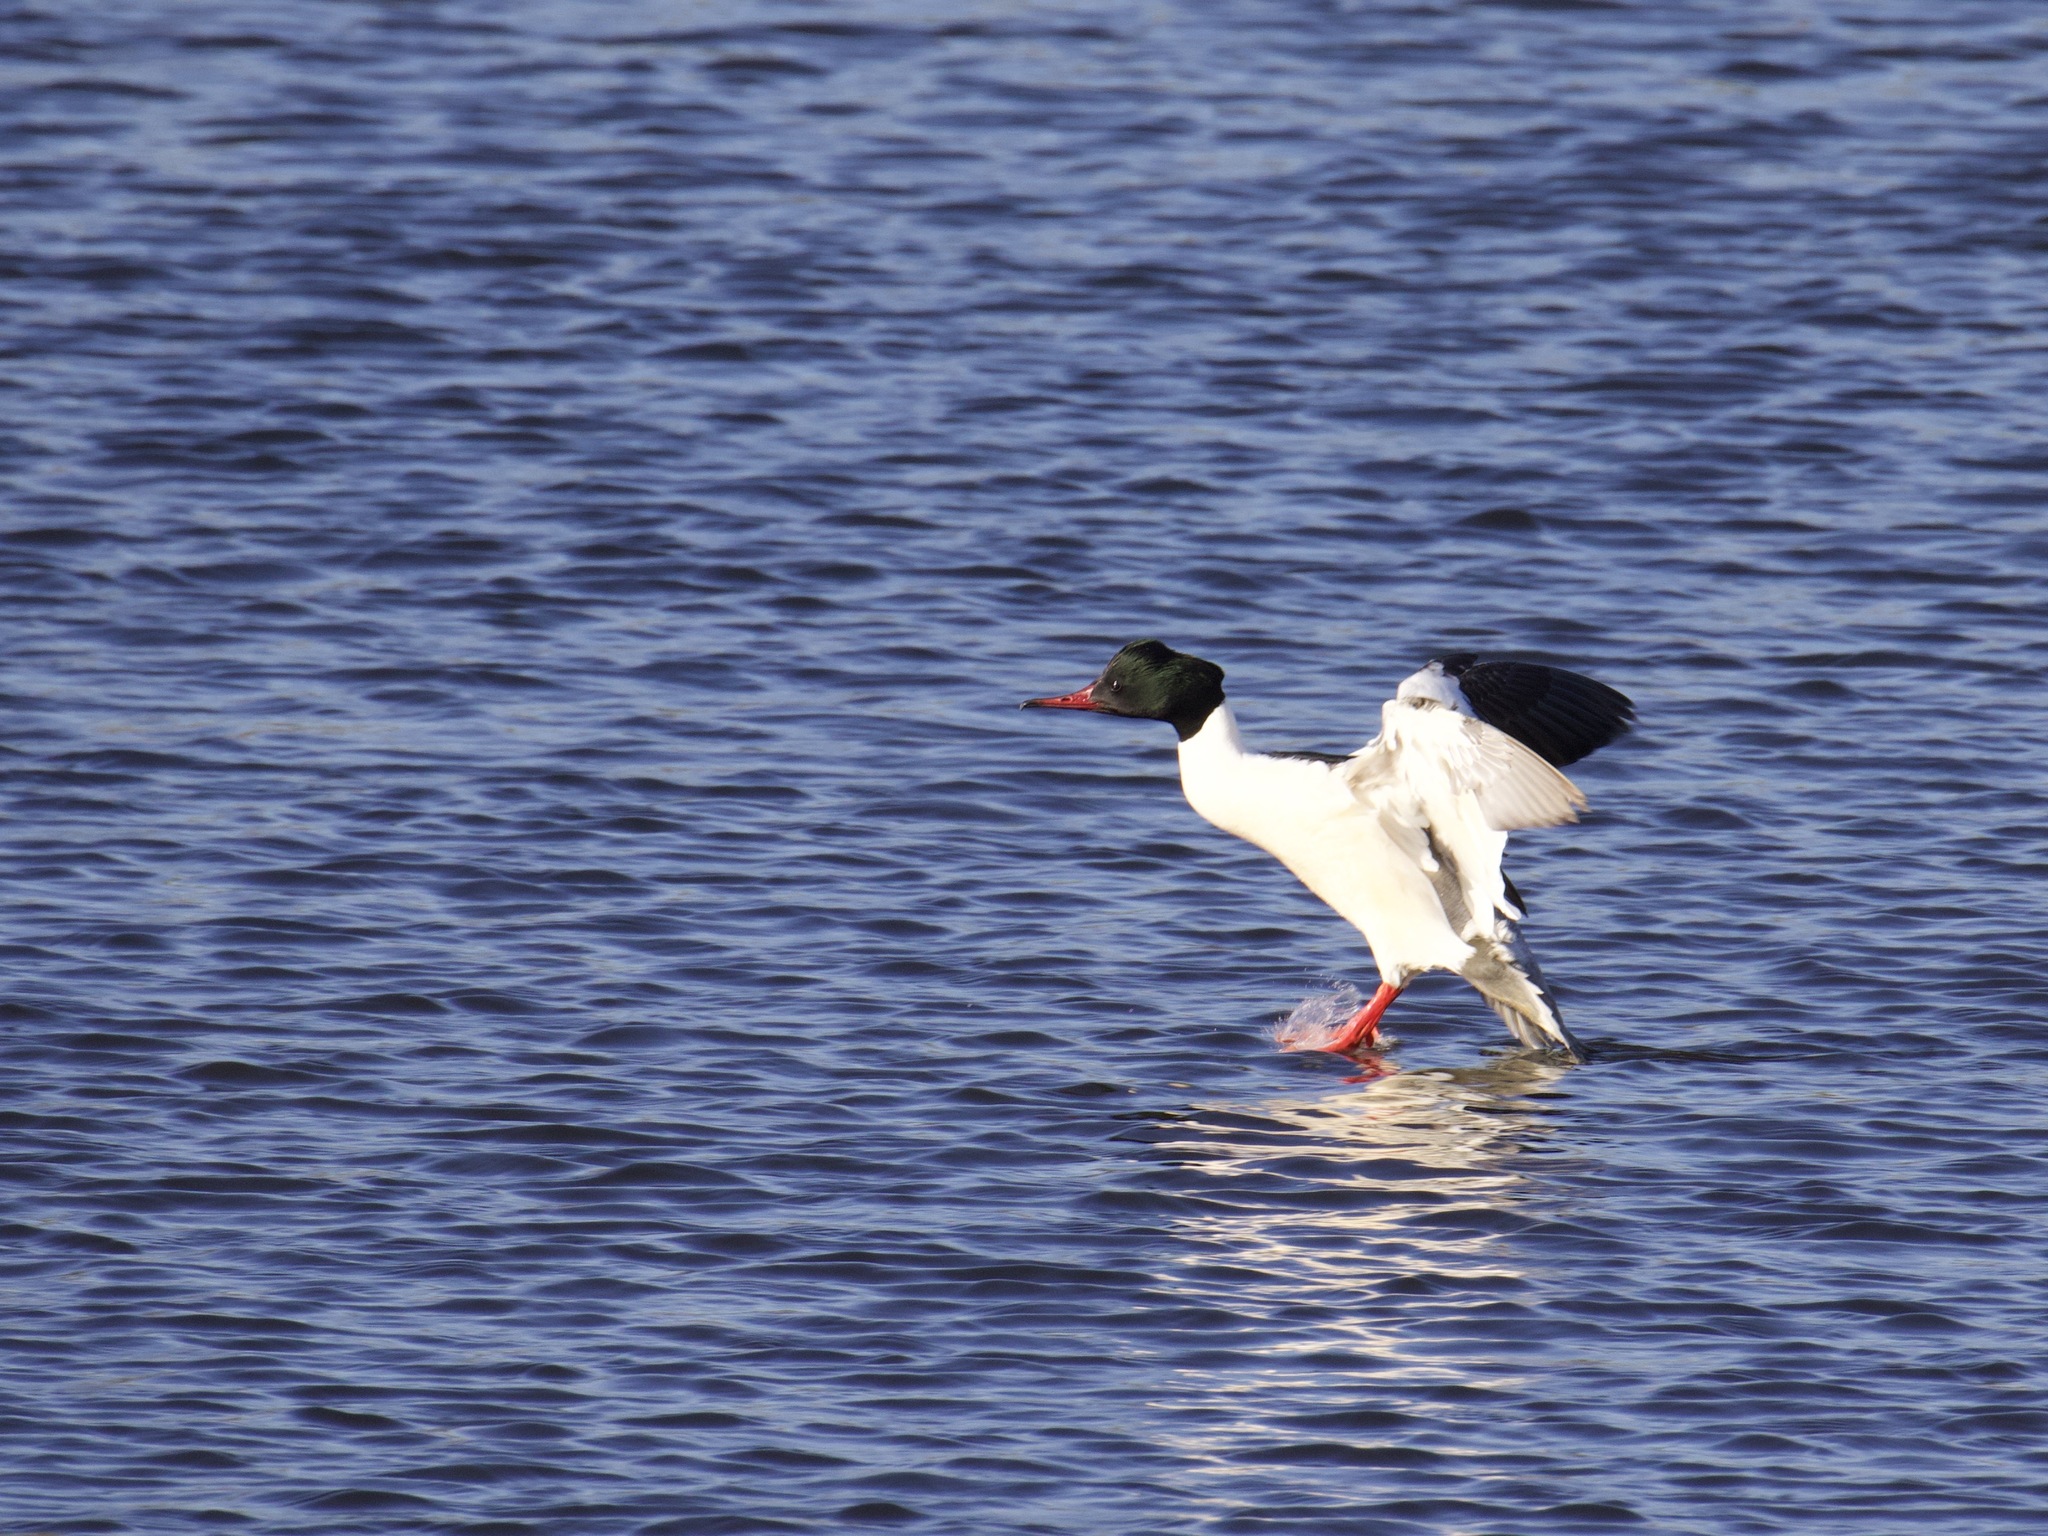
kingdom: Animalia
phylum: Chordata
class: Aves
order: Anseriformes
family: Anatidae
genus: Mergus
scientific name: Mergus merganser
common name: Common merganser
